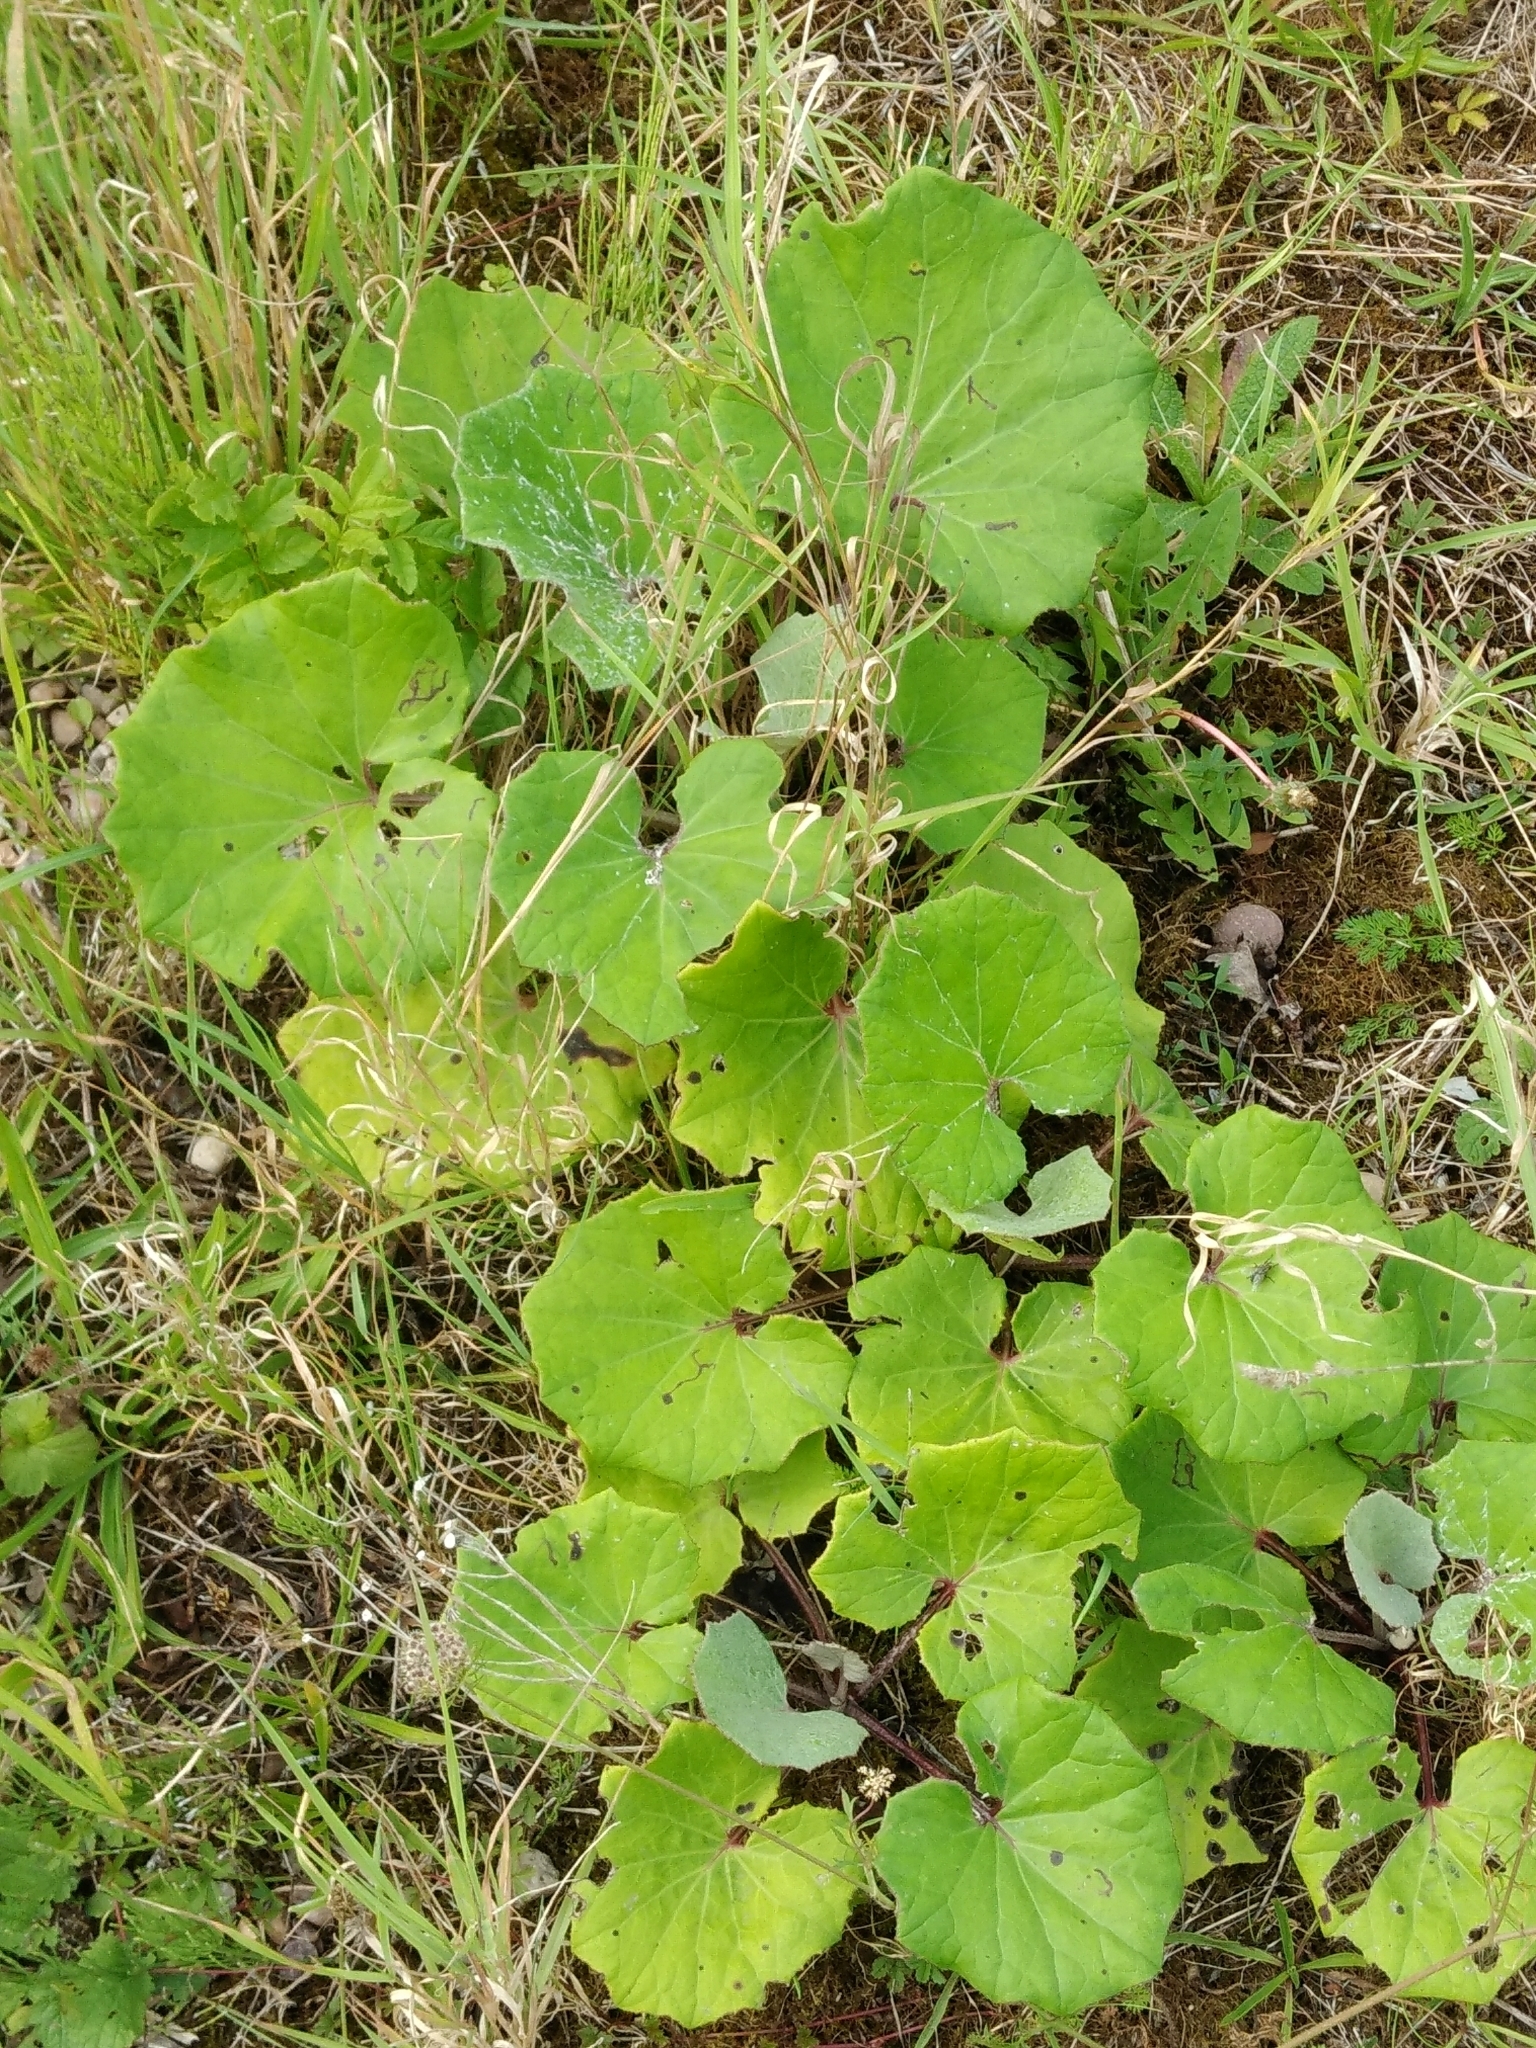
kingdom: Plantae
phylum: Tracheophyta
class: Magnoliopsida
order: Asterales
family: Asteraceae
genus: Tussilago
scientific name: Tussilago farfara
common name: Coltsfoot
